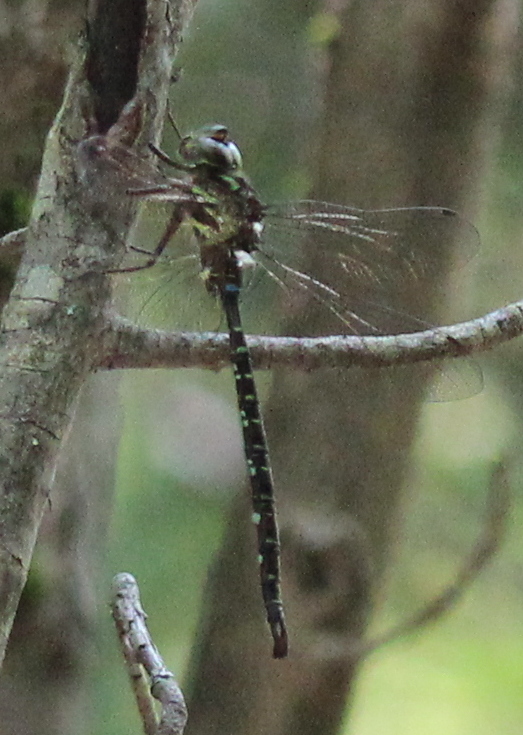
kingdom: Animalia
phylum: Arthropoda
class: Insecta
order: Odonata
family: Aeshnidae
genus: Aeshna
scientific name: Aeshna umbrosa
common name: Shadow darner
